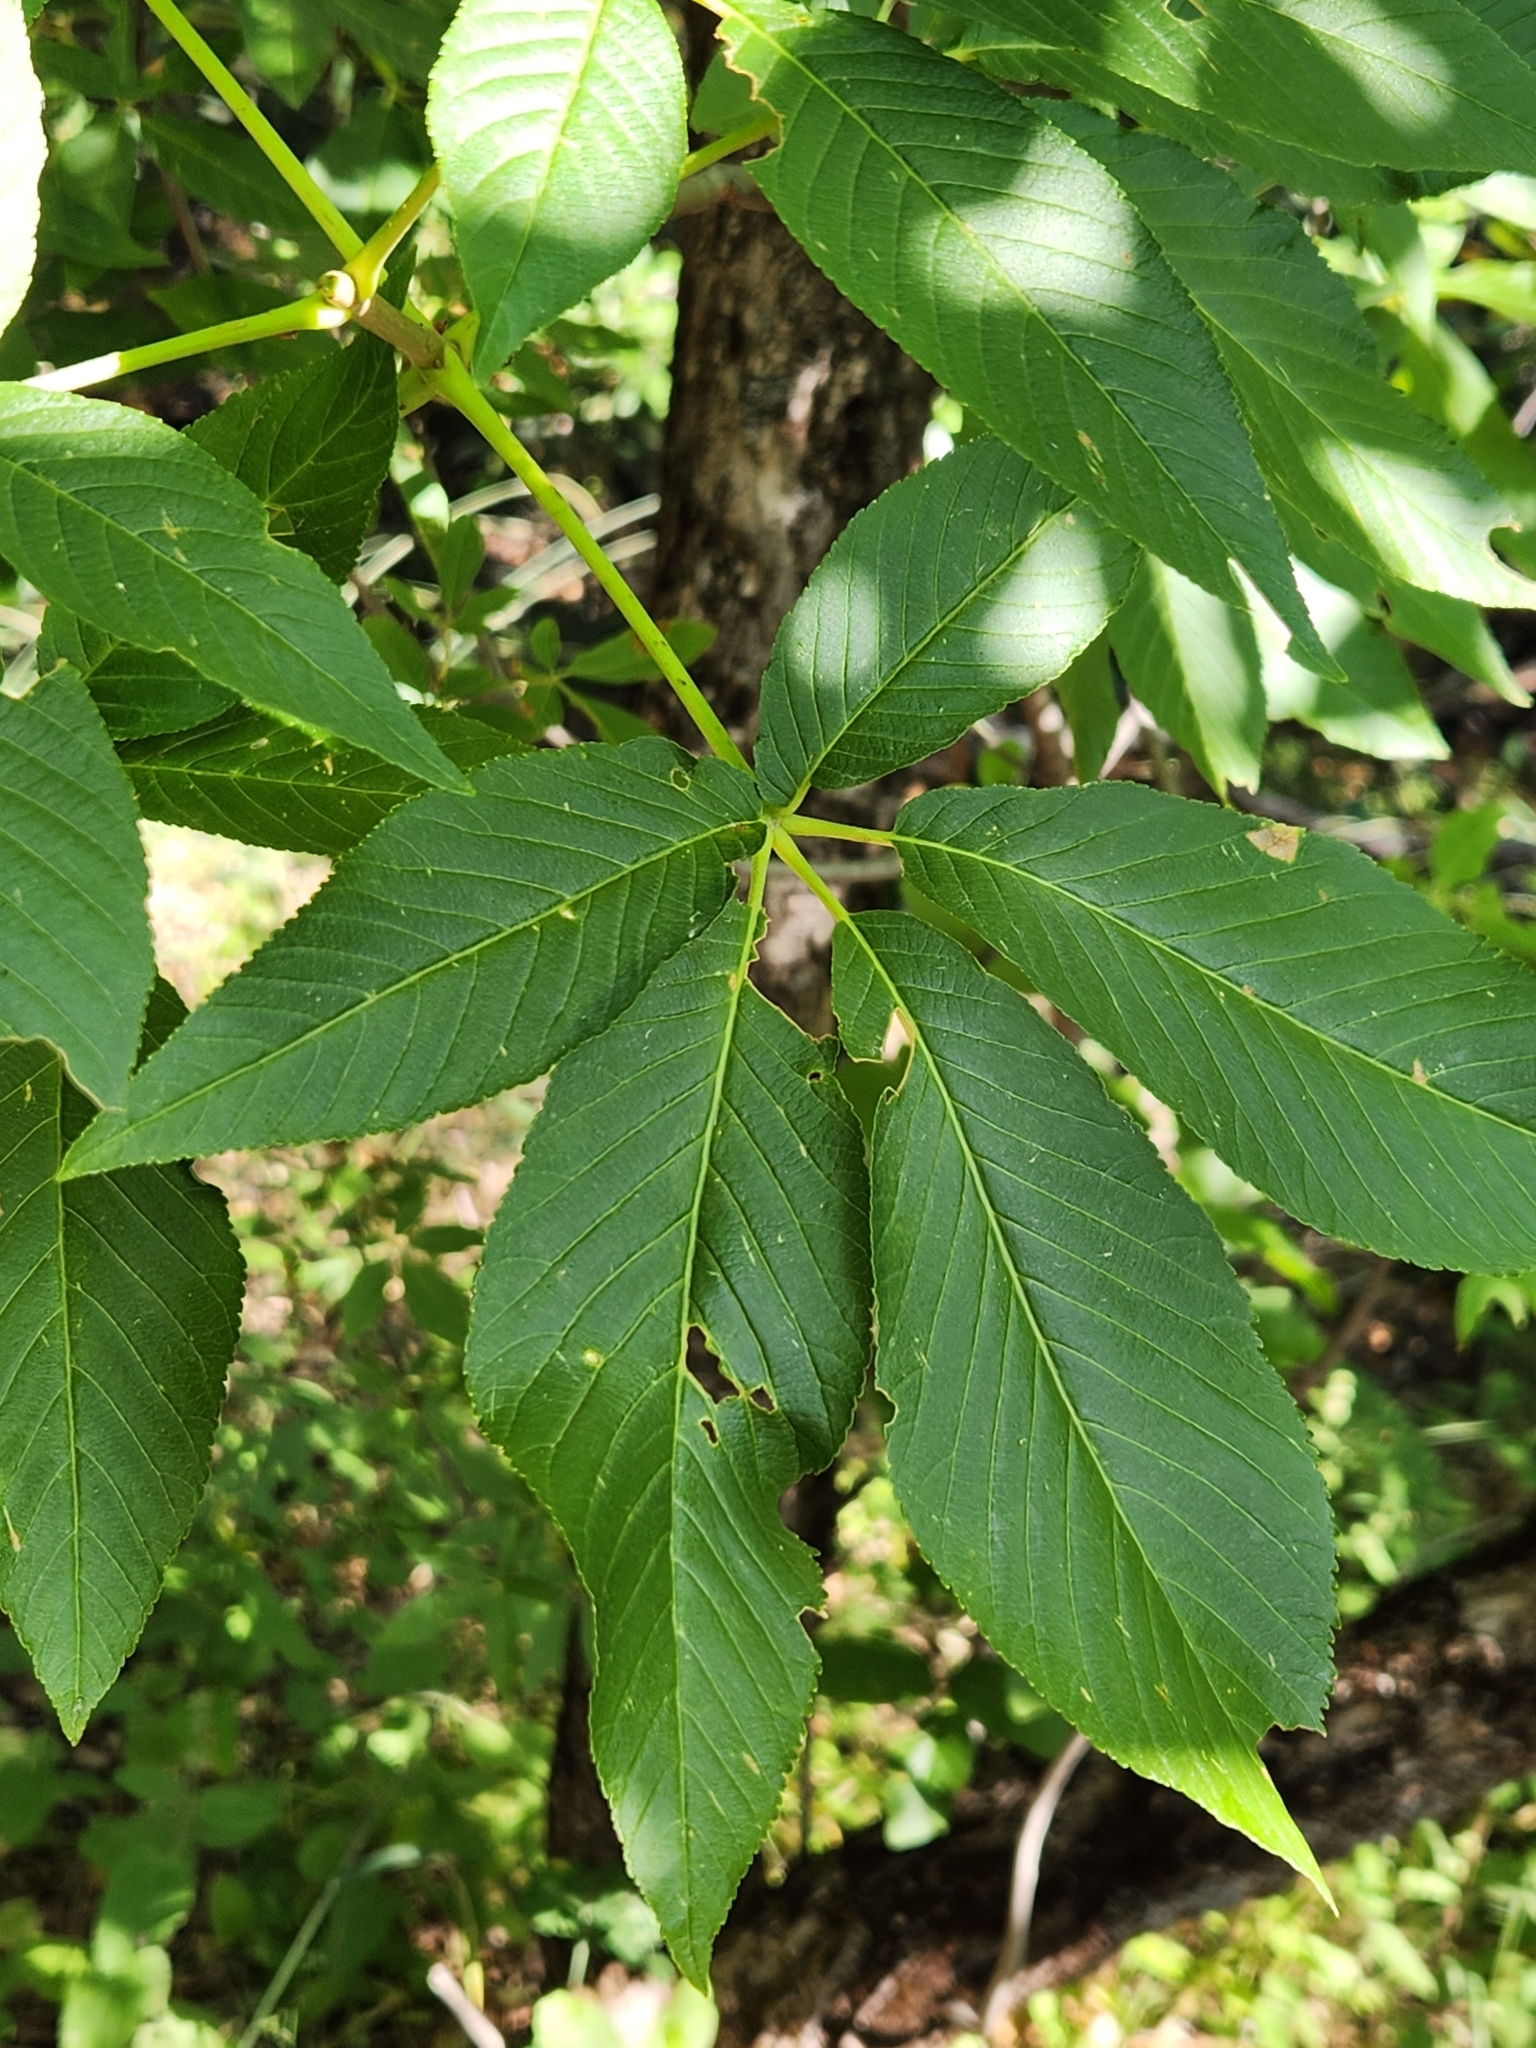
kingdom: Plantae
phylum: Tracheophyta
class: Magnoliopsida
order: Sapindales
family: Sapindaceae
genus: Aesculus
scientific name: Aesculus californica
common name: California buckeye
